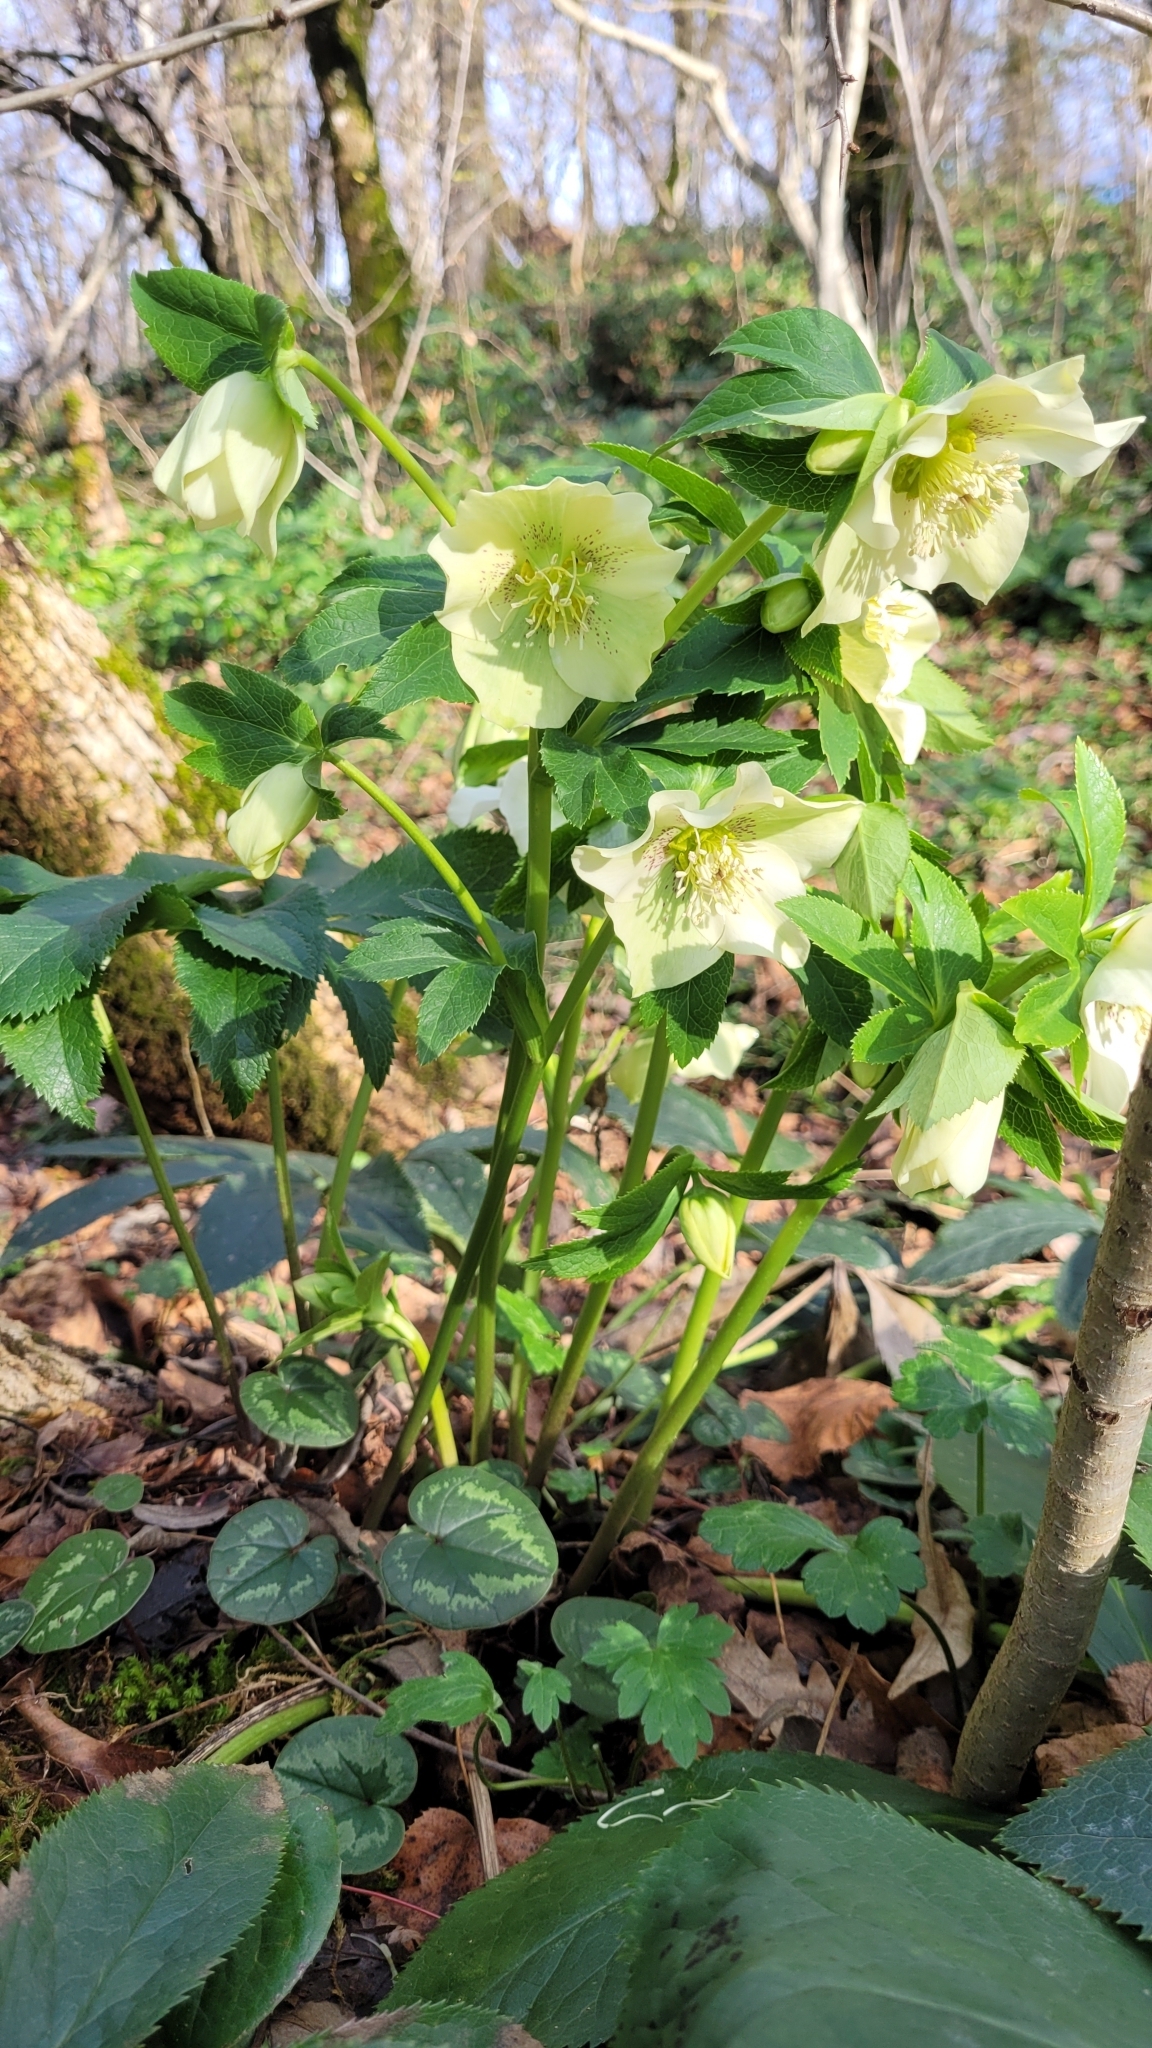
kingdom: Plantae
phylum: Tracheophyta
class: Magnoliopsida
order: Ranunculales
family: Ranunculaceae
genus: Helleborus
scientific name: Helleborus orientalis
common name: Lenten-rose
